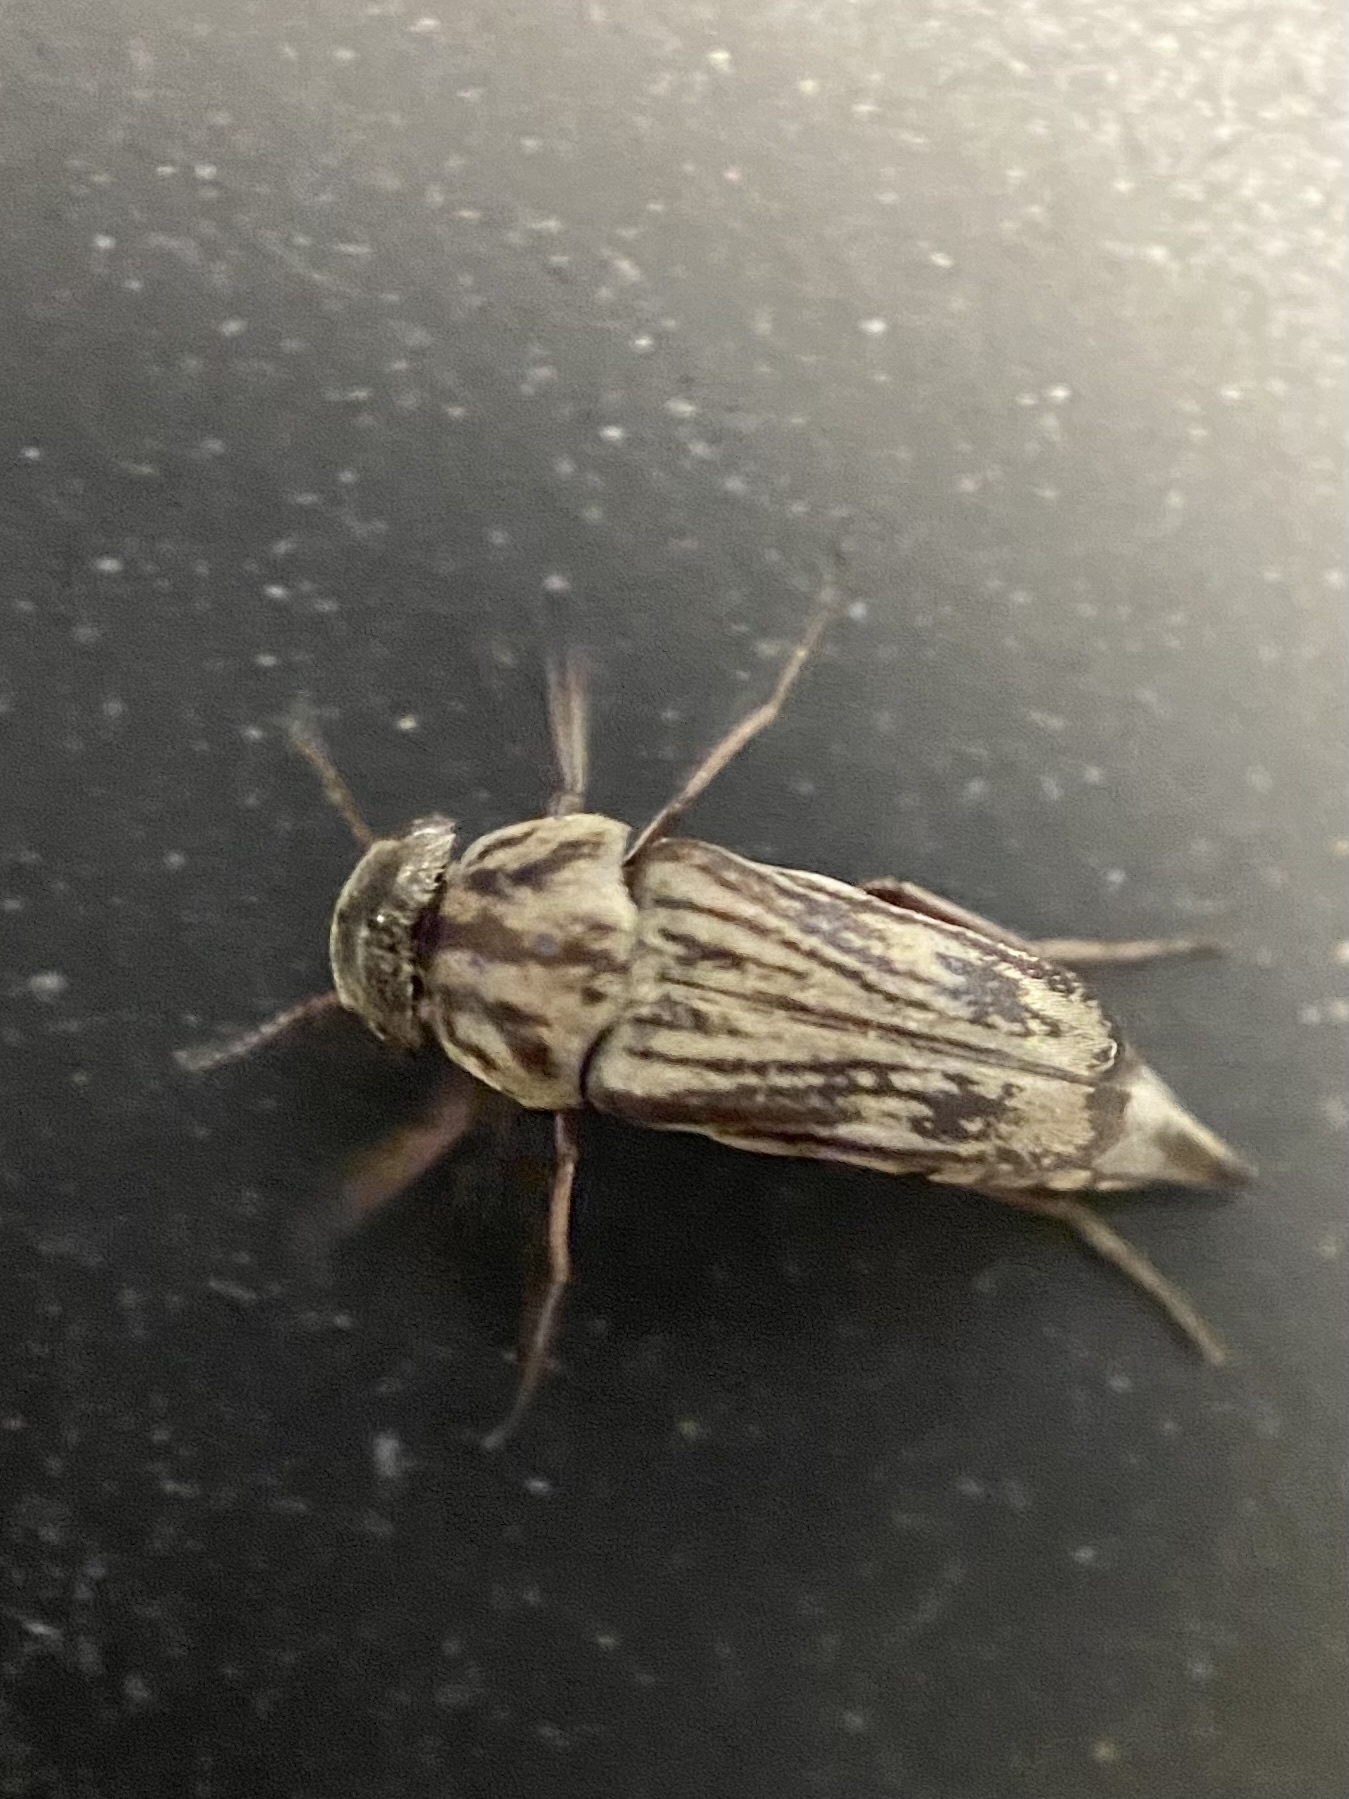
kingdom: Animalia
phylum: Arthropoda
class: Insecta
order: Coleoptera
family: Mordellidae
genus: Tomoxia
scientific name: Tomoxia lineella
